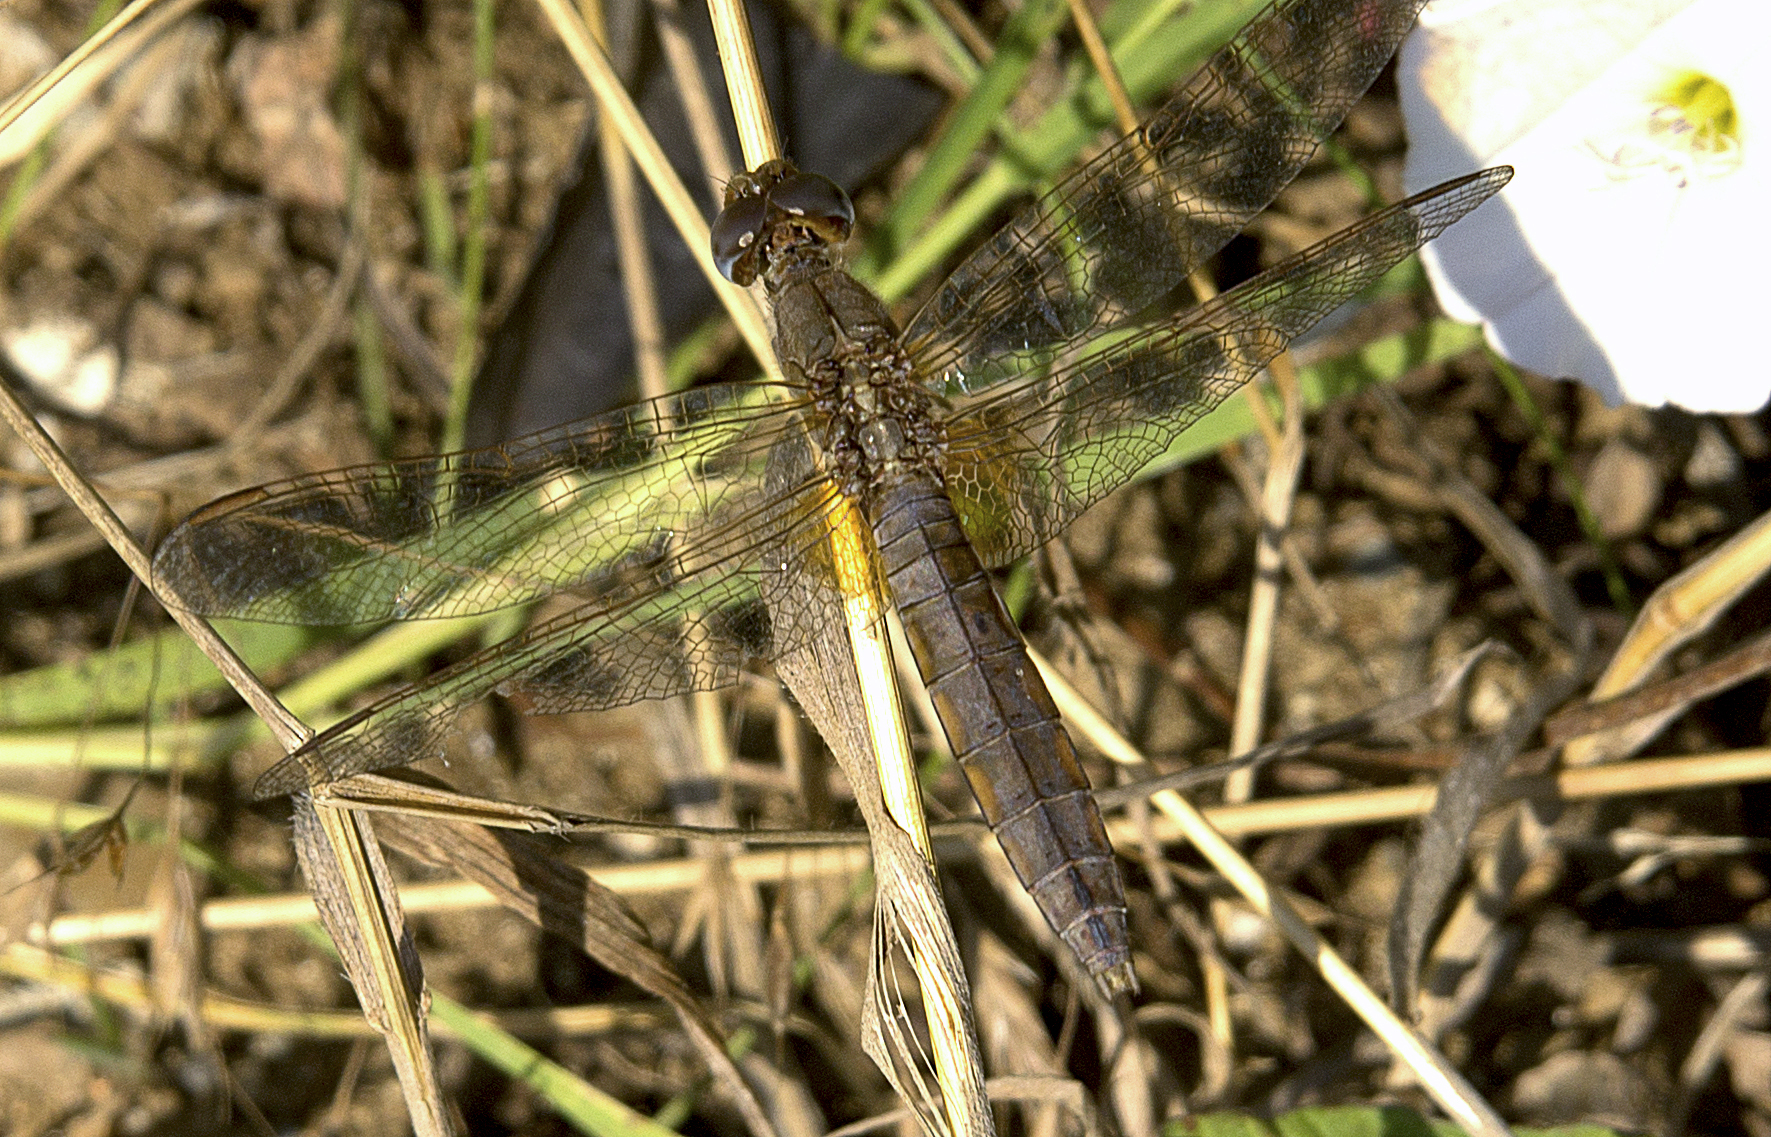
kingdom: Animalia
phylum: Arthropoda
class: Insecta
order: Odonata
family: Libellulidae
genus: Crocothemis
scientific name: Crocothemis erythraea
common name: Scarlet dragonfly
